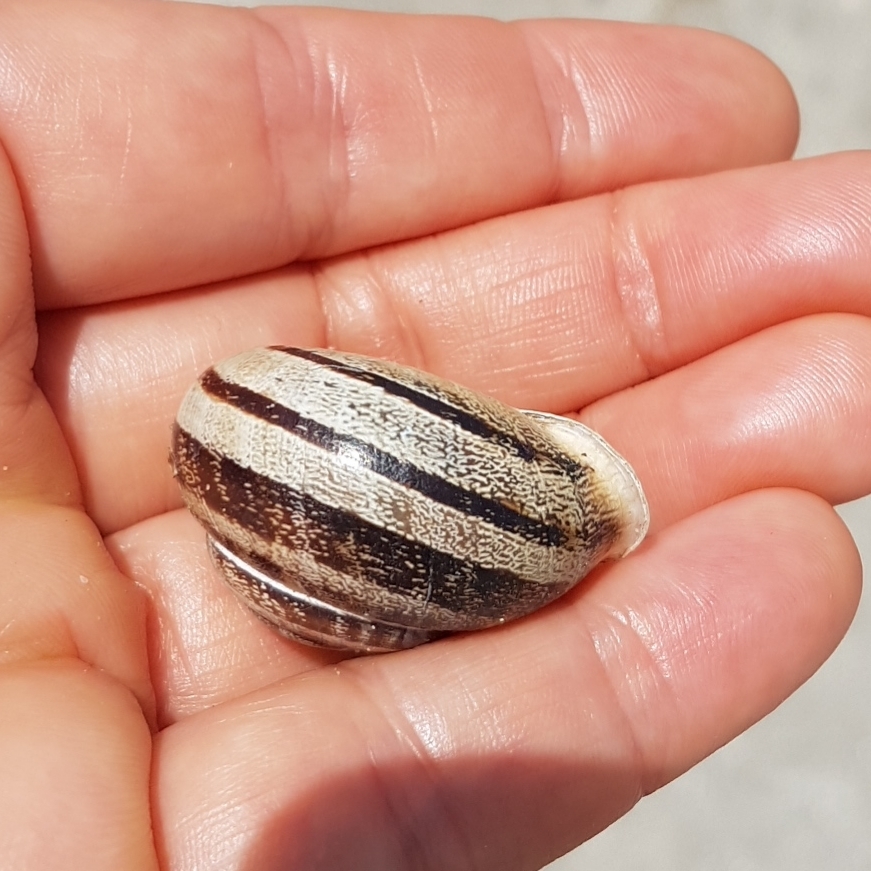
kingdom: Animalia
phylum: Mollusca
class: Gastropoda
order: Stylommatophora
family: Helicidae
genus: Eobania
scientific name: Eobania vermiculata
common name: Chocolateband snail
